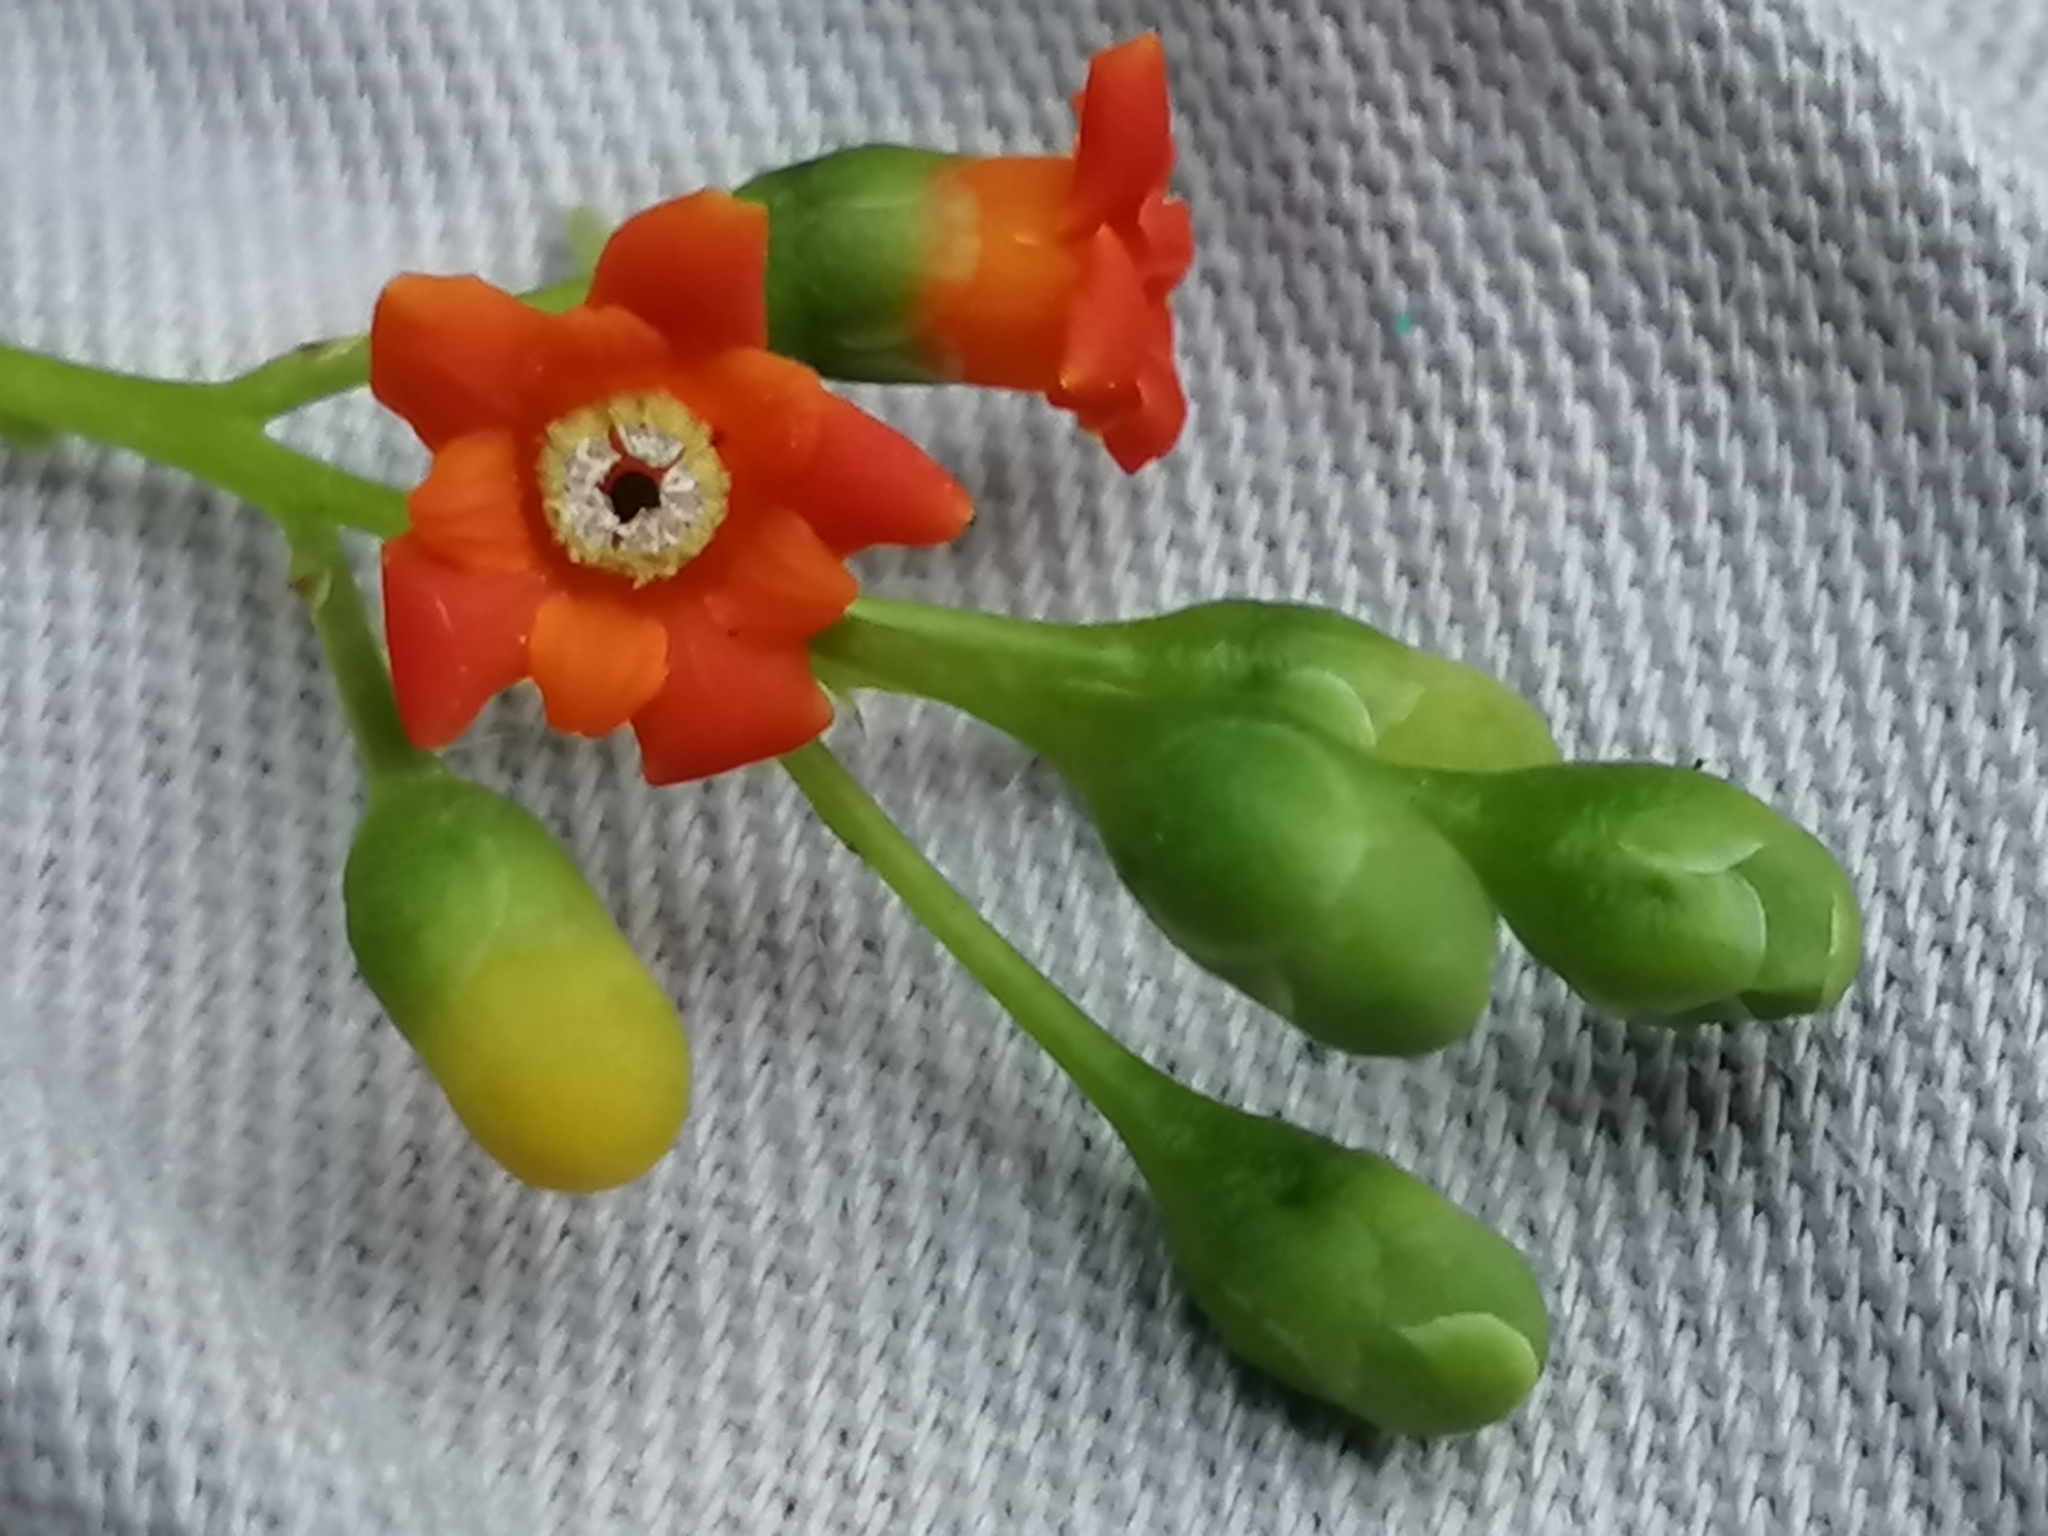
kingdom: Plantae
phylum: Tracheophyta
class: Magnoliopsida
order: Ericales
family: Primulaceae
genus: Bonellia
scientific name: Bonellia macrocarpa
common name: Primrose
